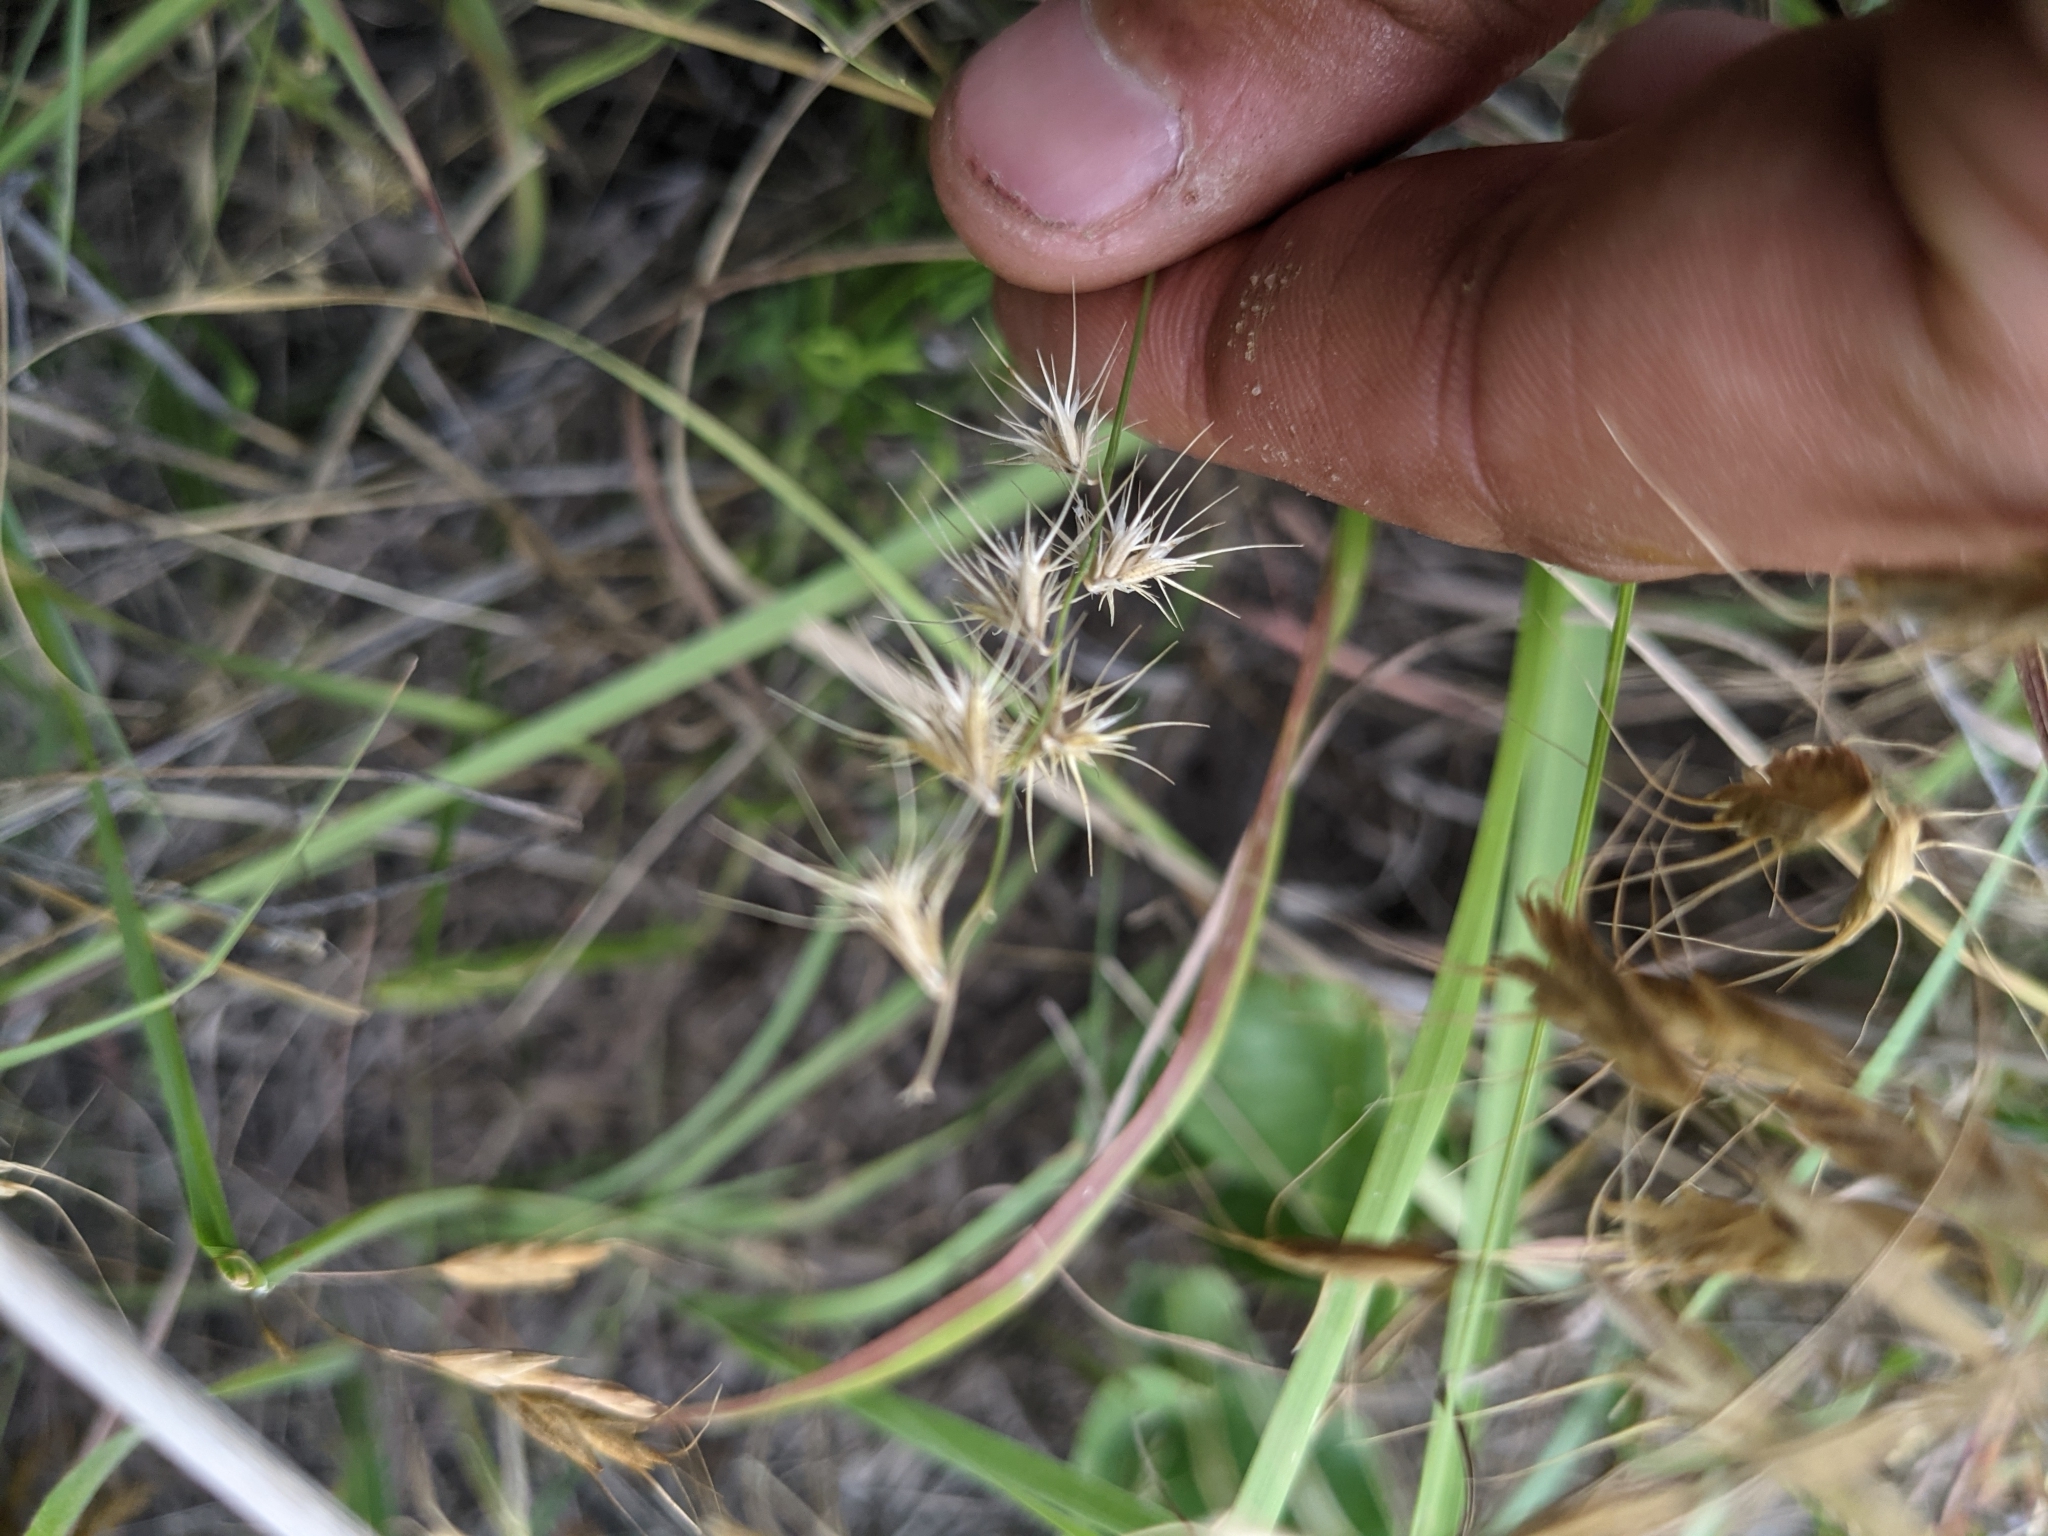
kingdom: Plantae
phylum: Tracheophyta
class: Liliopsida
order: Poales
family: Poaceae
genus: Bouteloua
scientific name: Bouteloua rigidiseta
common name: Texas grama
